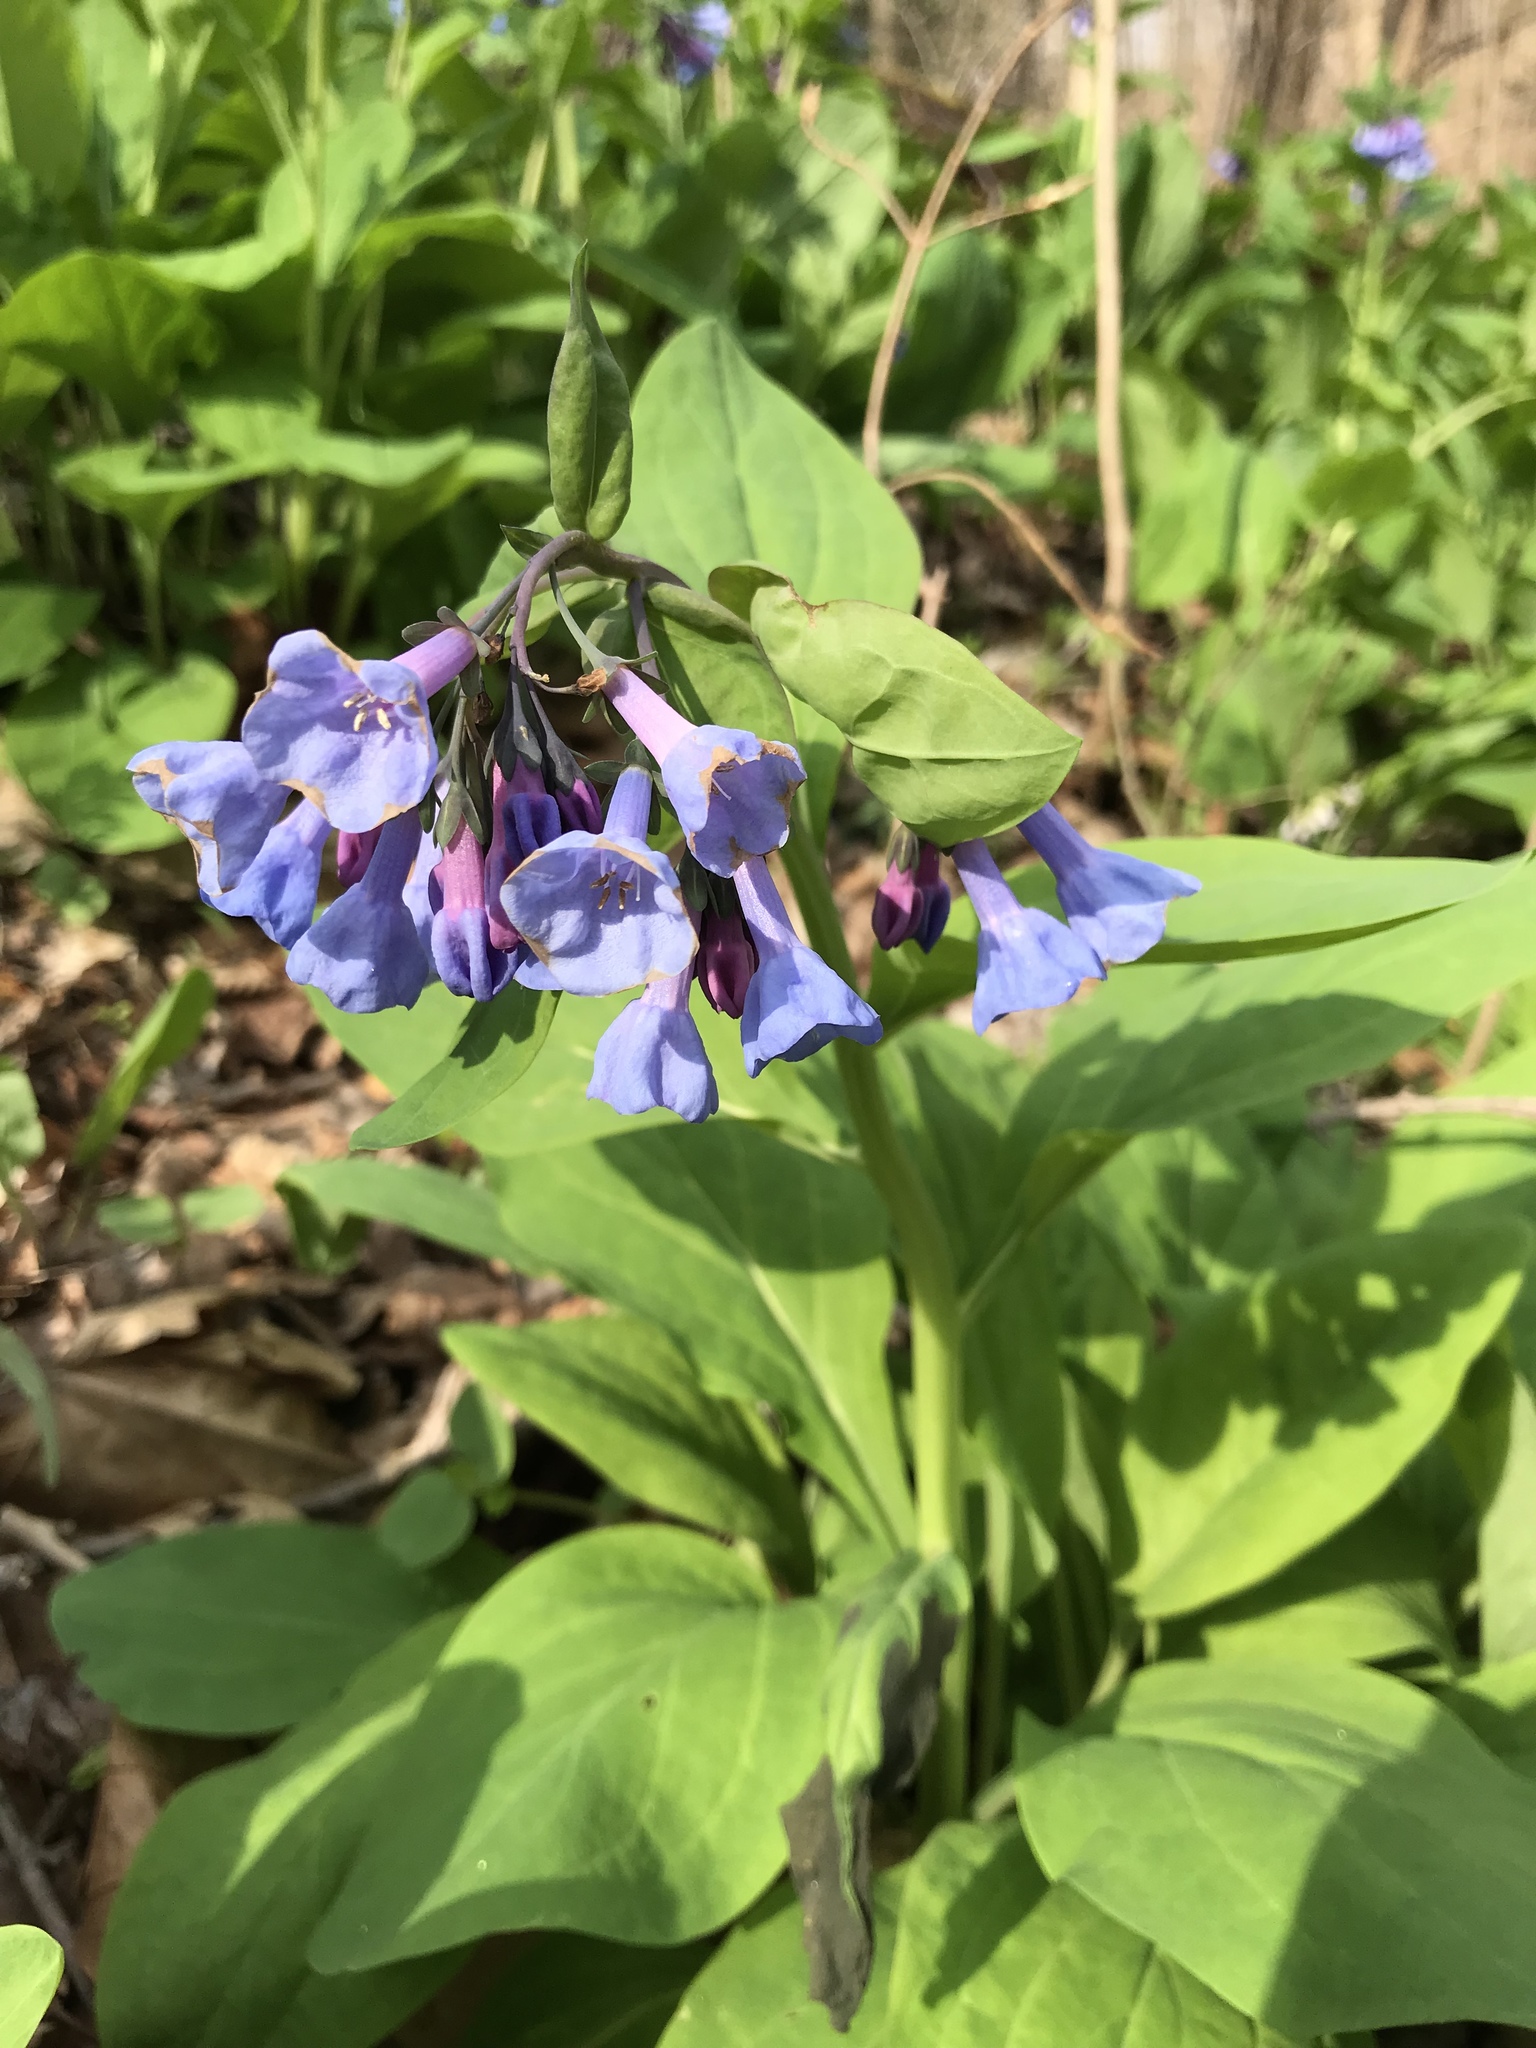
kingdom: Plantae
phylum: Tracheophyta
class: Magnoliopsida
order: Boraginales
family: Boraginaceae
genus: Mertensia
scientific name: Mertensia virginica
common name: Virginia bluebells
